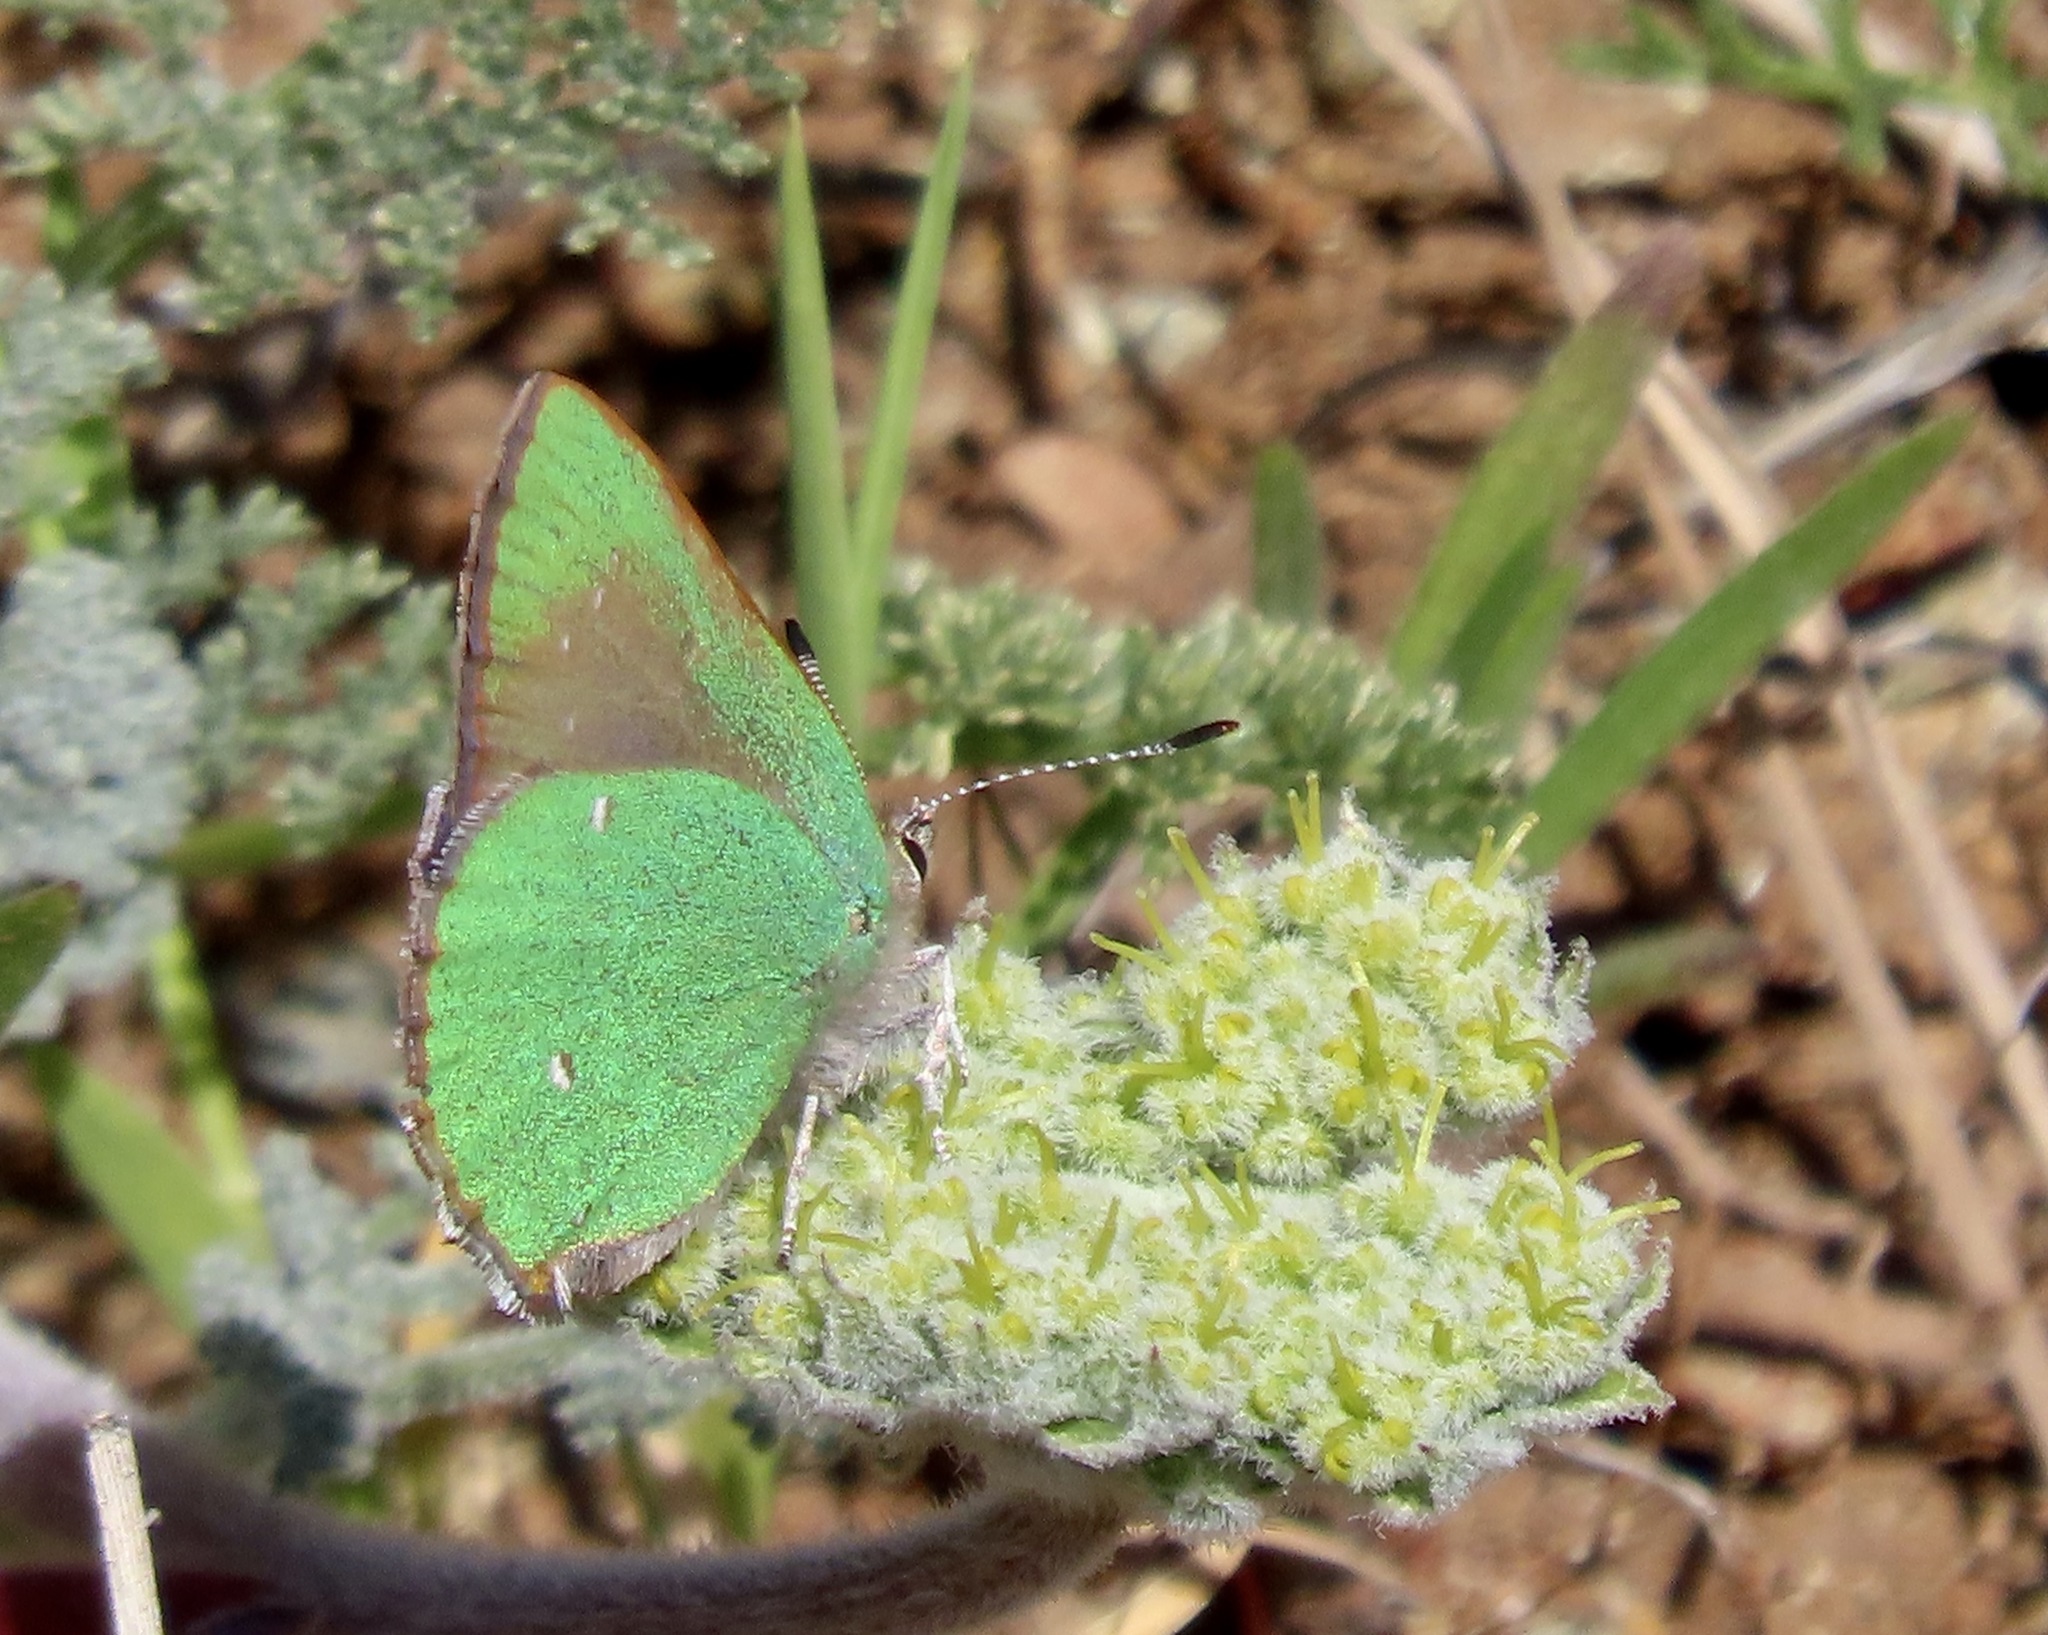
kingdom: Animalia
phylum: Arthropoda
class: Insecta
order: Lepidoptera
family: Lycaenidae
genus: Callophrys
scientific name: Callophrys dumetorum
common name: Bramble hairstreak
